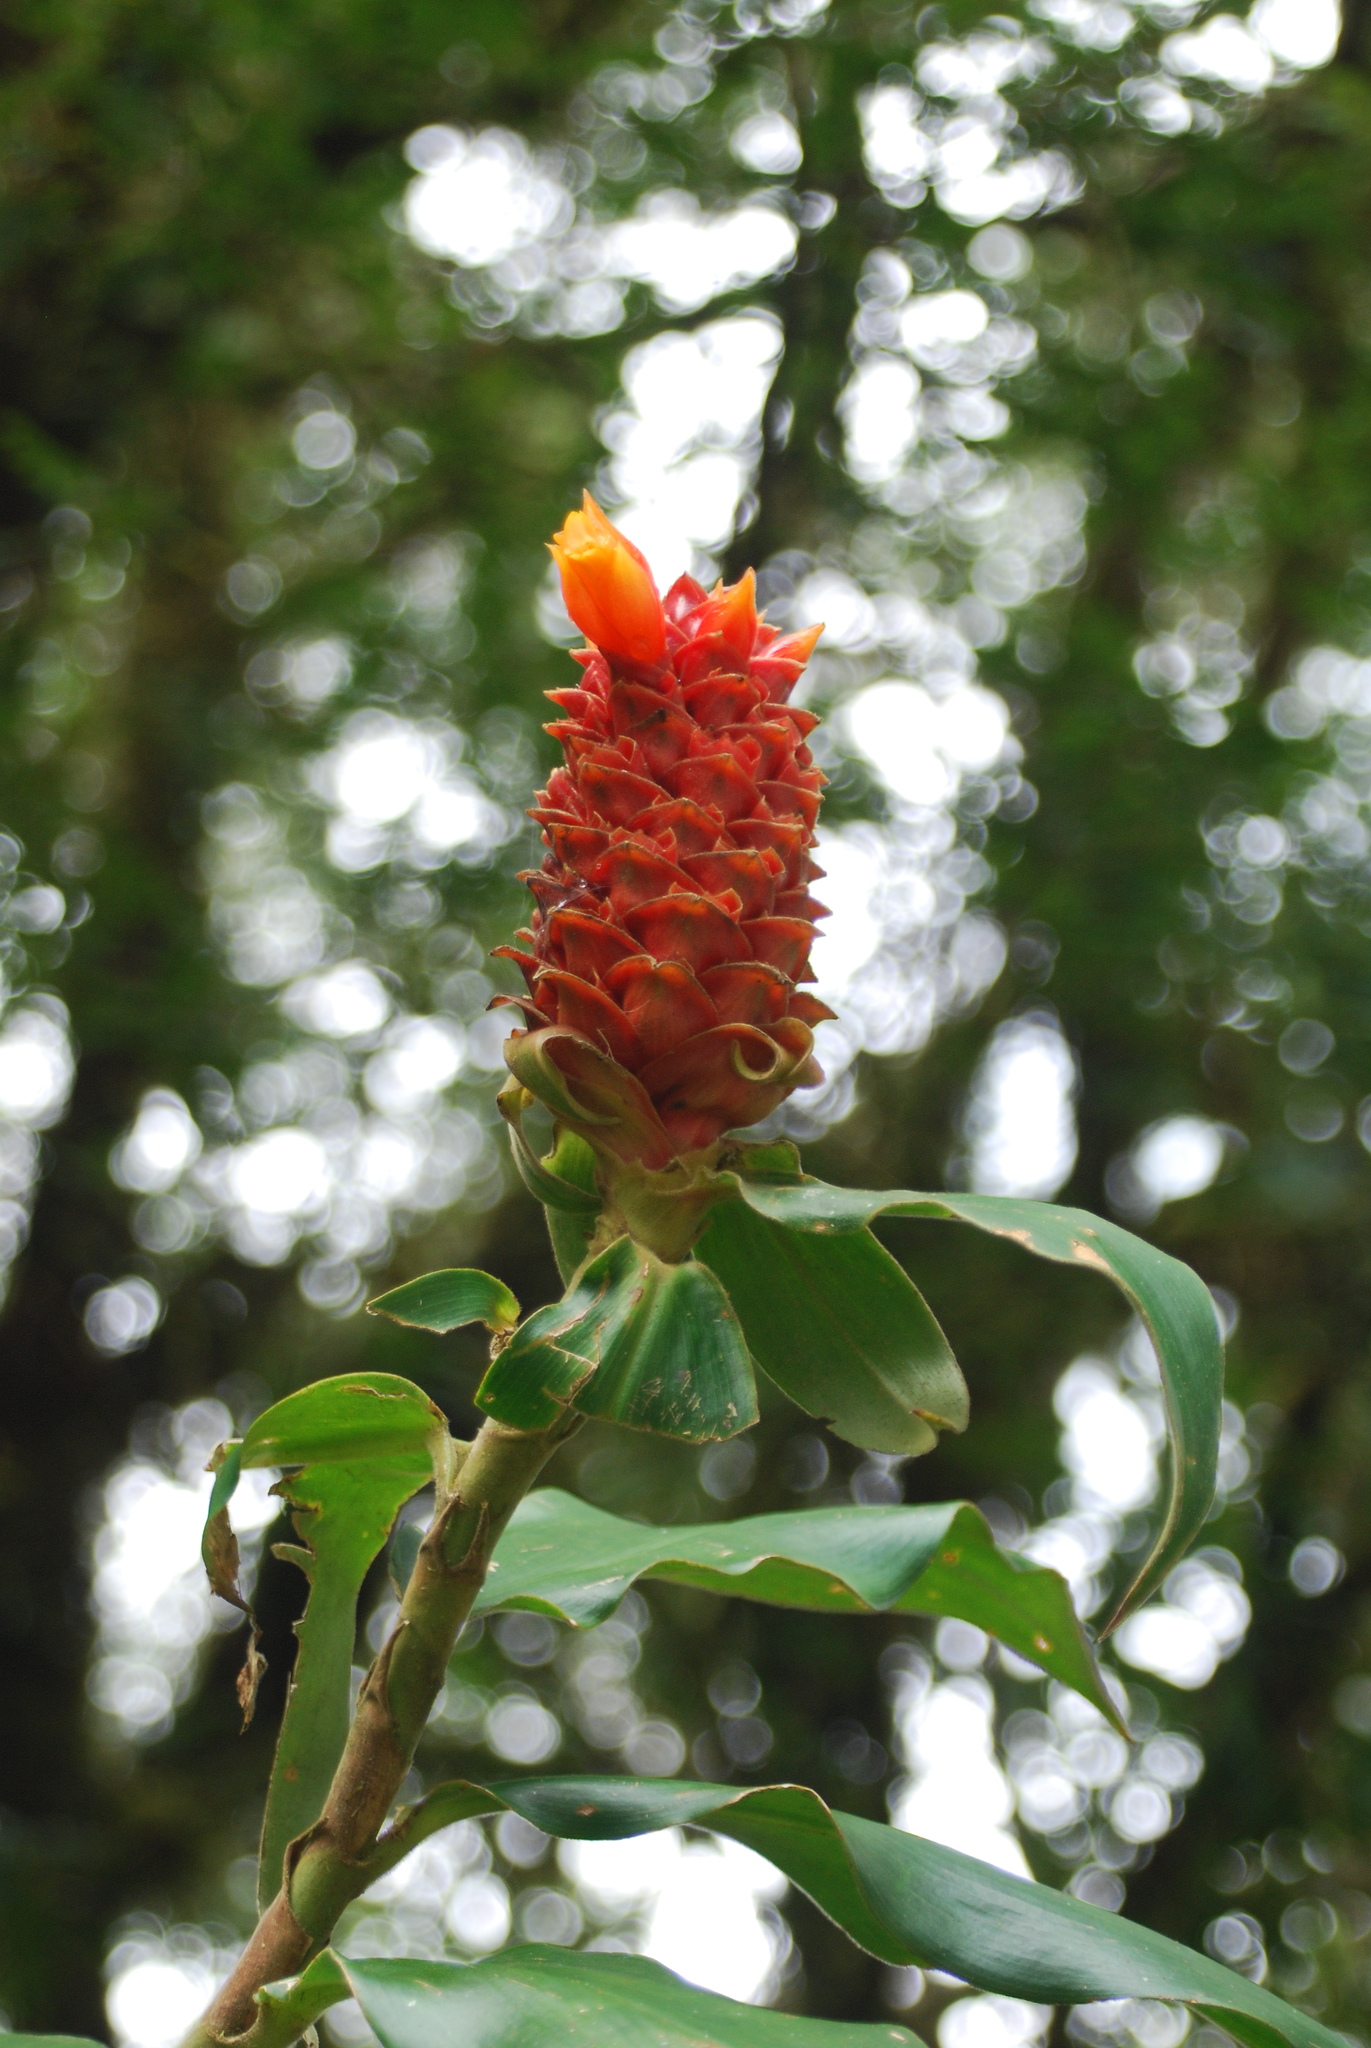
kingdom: Plantae
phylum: Tracheophyta
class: Liliopsida
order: Zingiberales
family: Costaceae
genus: Costus
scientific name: Costus montanus
